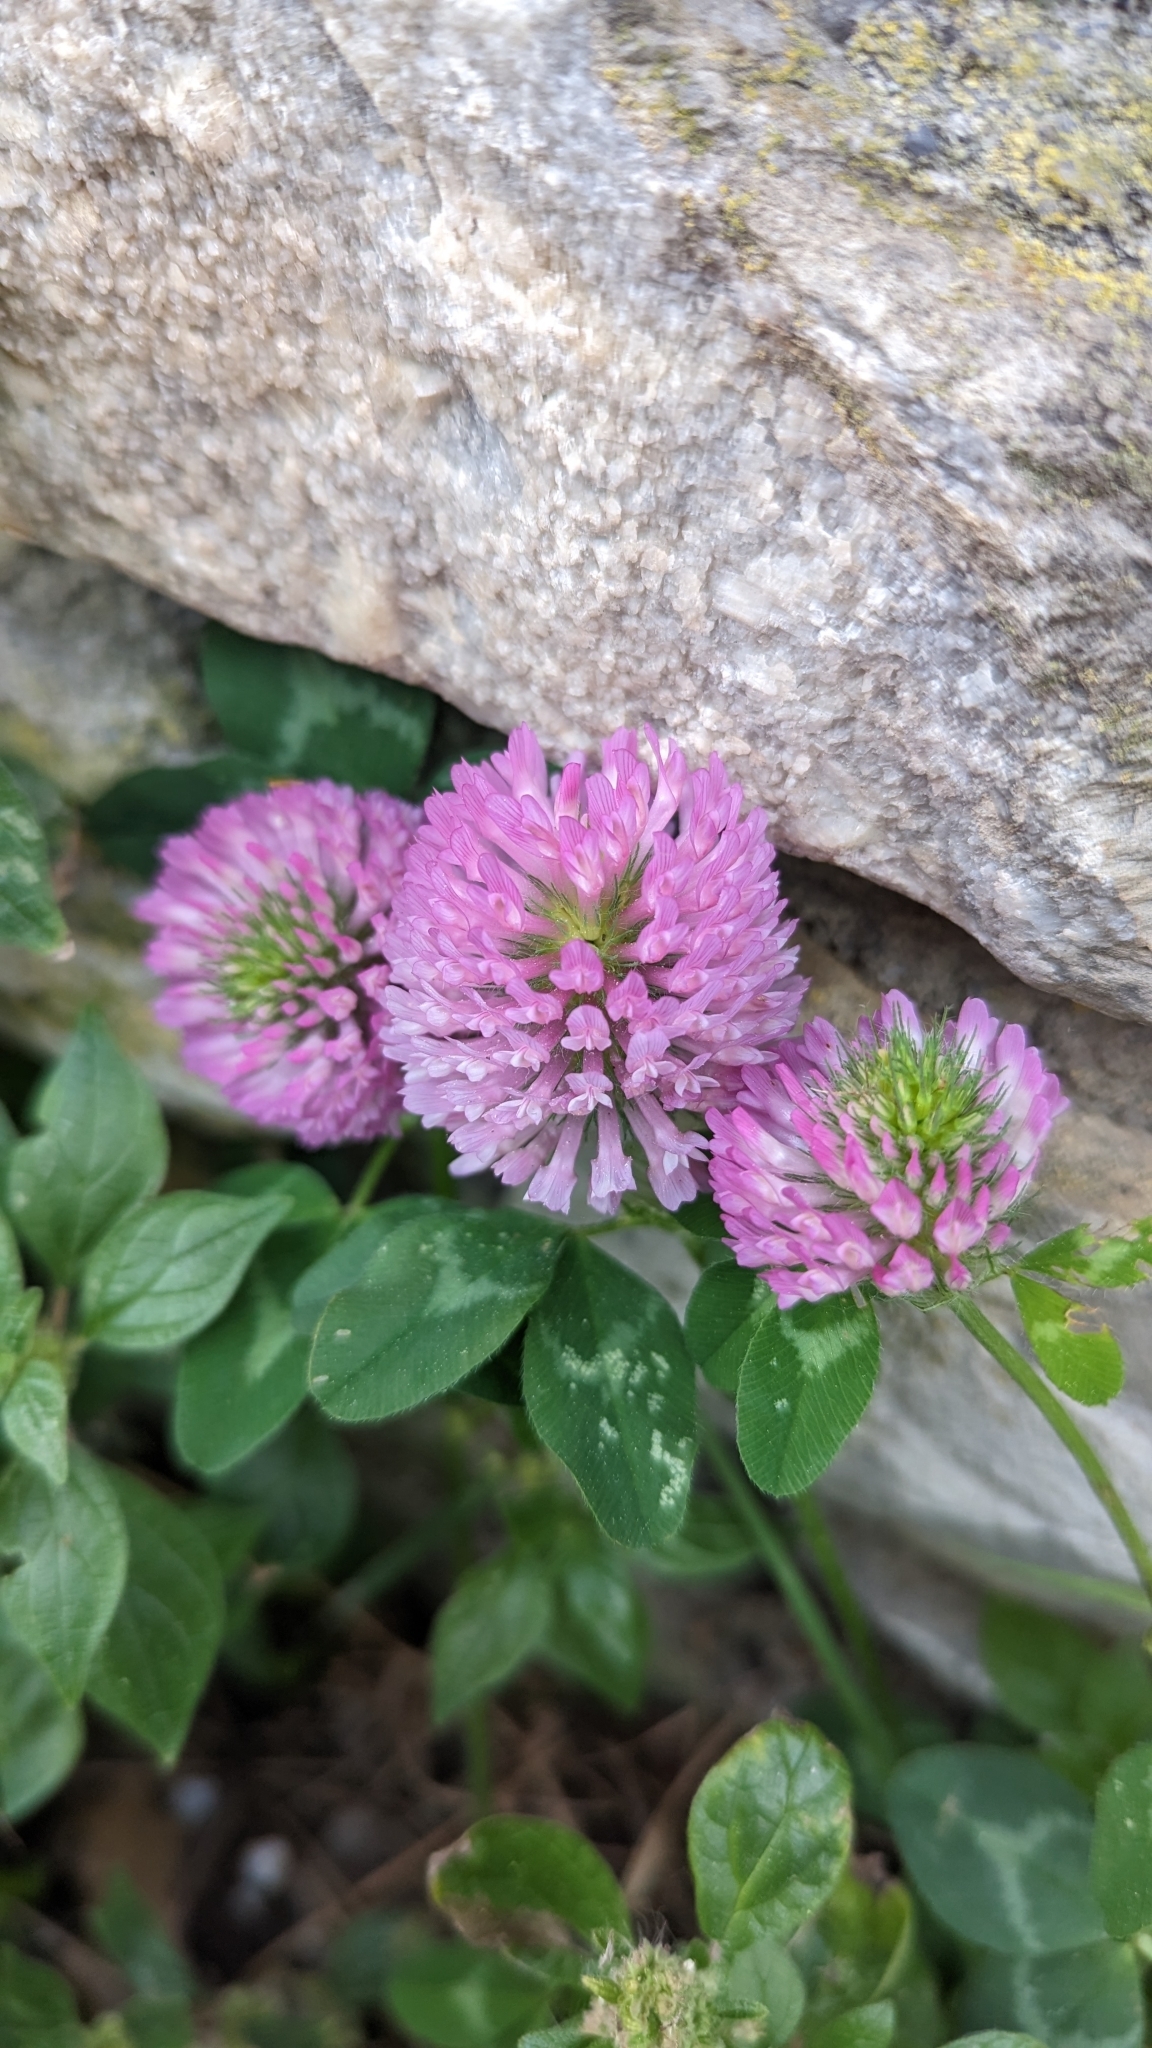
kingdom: Plantae
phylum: Tracheophyta
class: Magnoliopsida
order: Fabales
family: Fabaceae
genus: Trifolium
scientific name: Trifolium pratense
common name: Red clover
